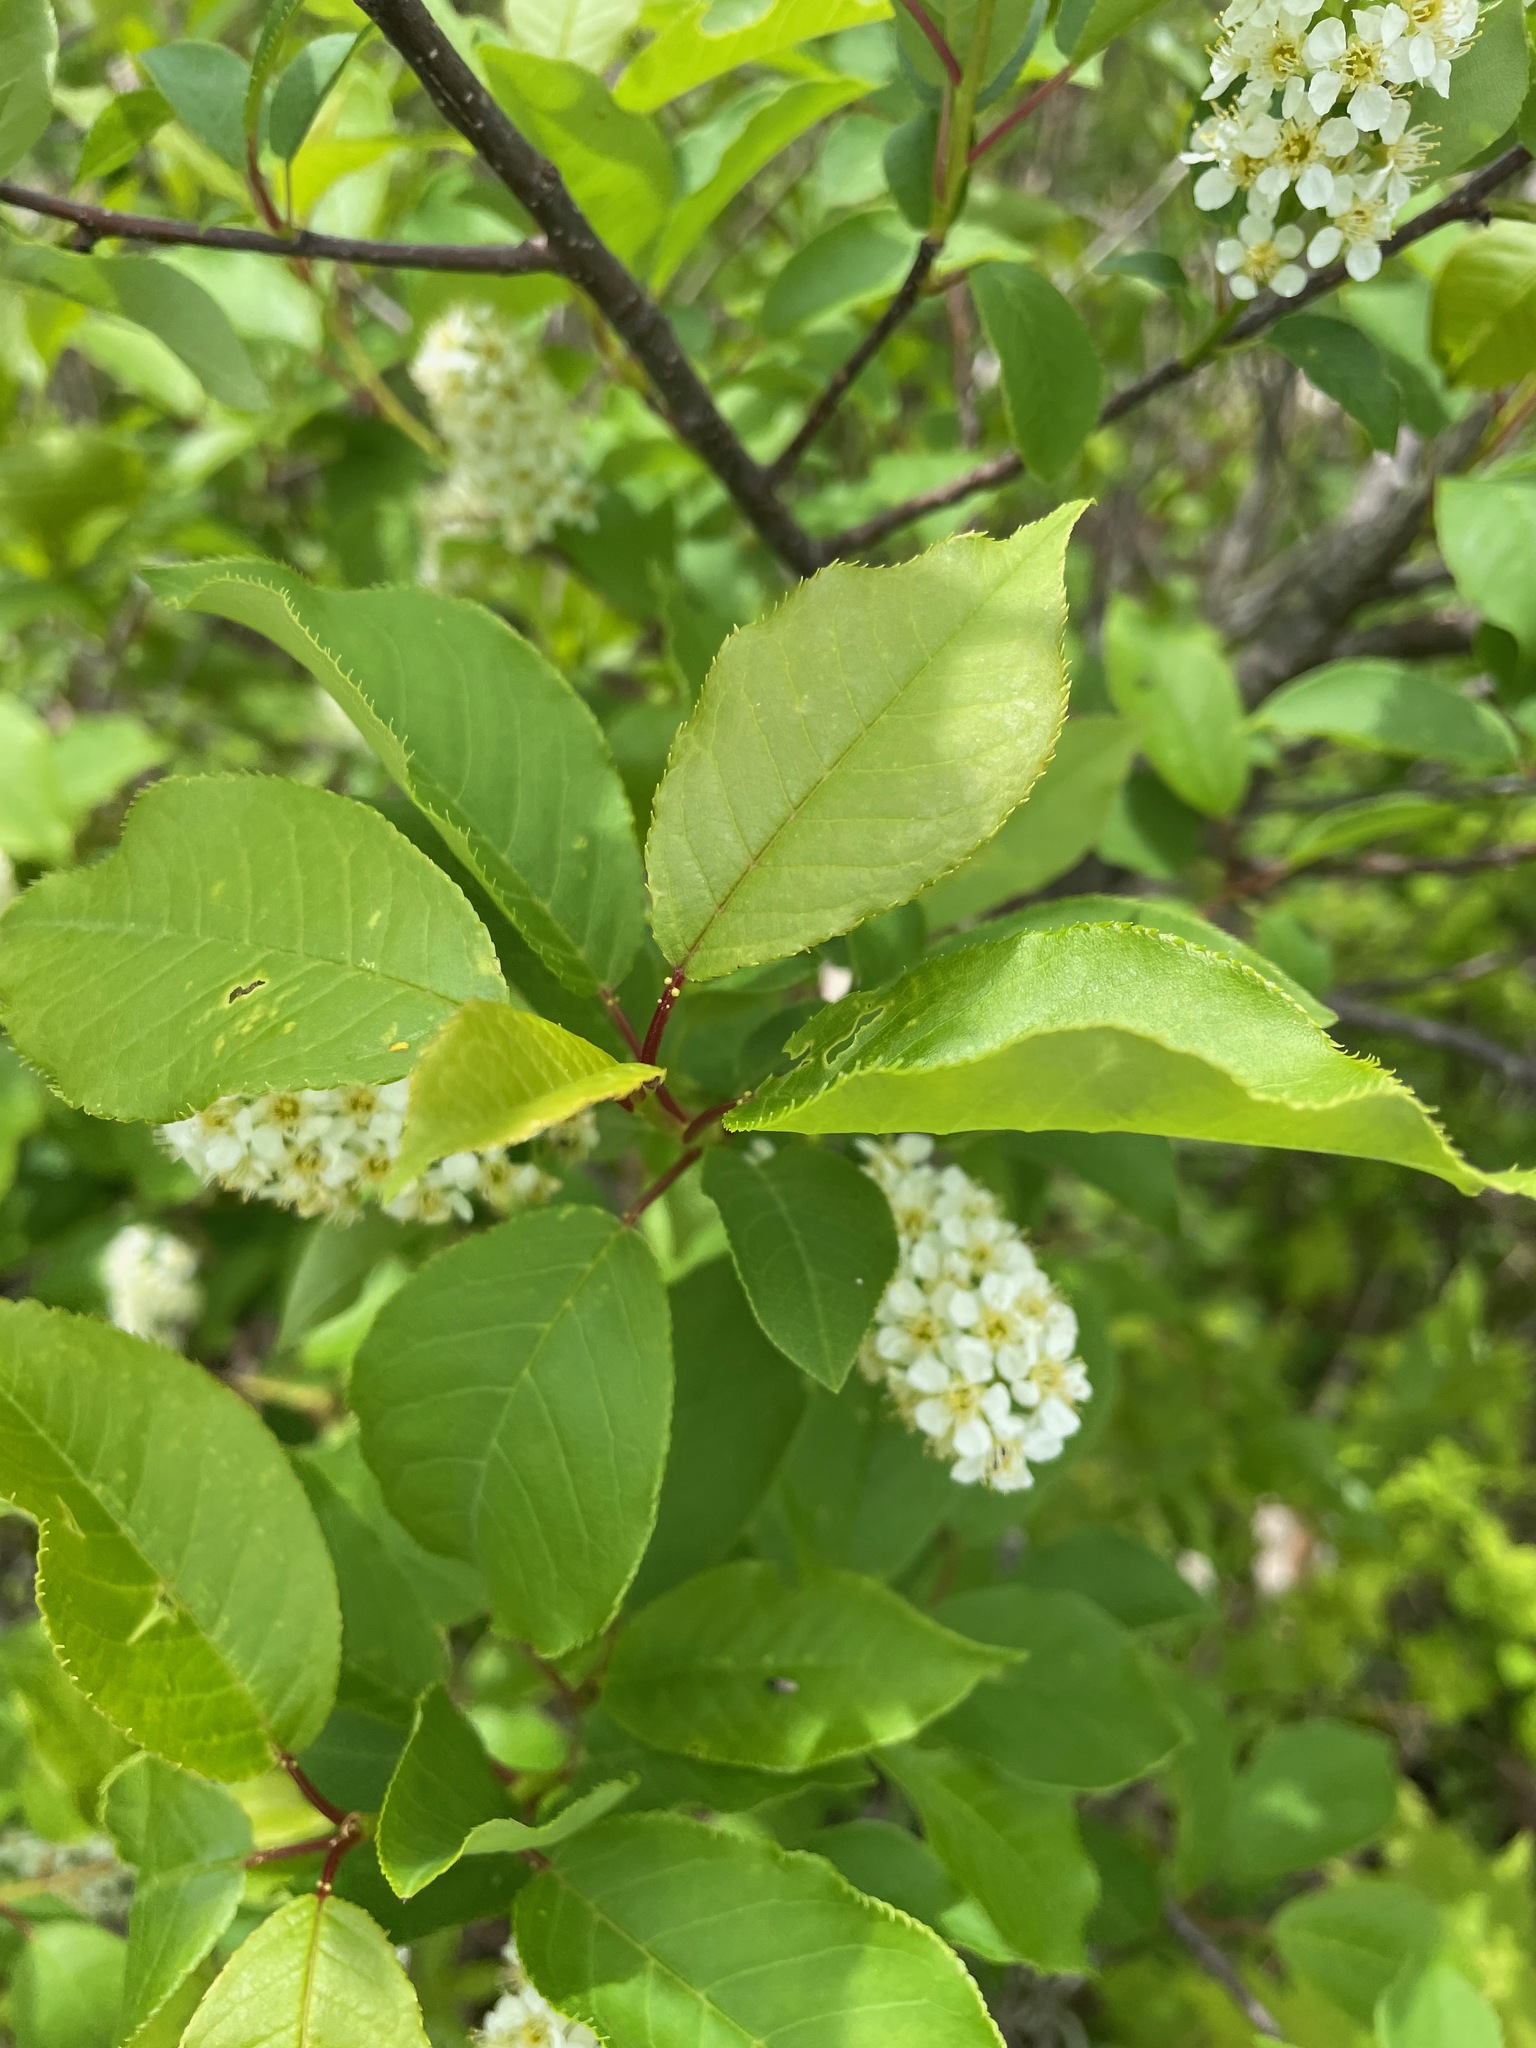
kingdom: Plantae
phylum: Tracheophyta
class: Magnoliopsida
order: Rosales
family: Rosaceae
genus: Prunus
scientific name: Prunus virginiana
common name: Chokecherry
